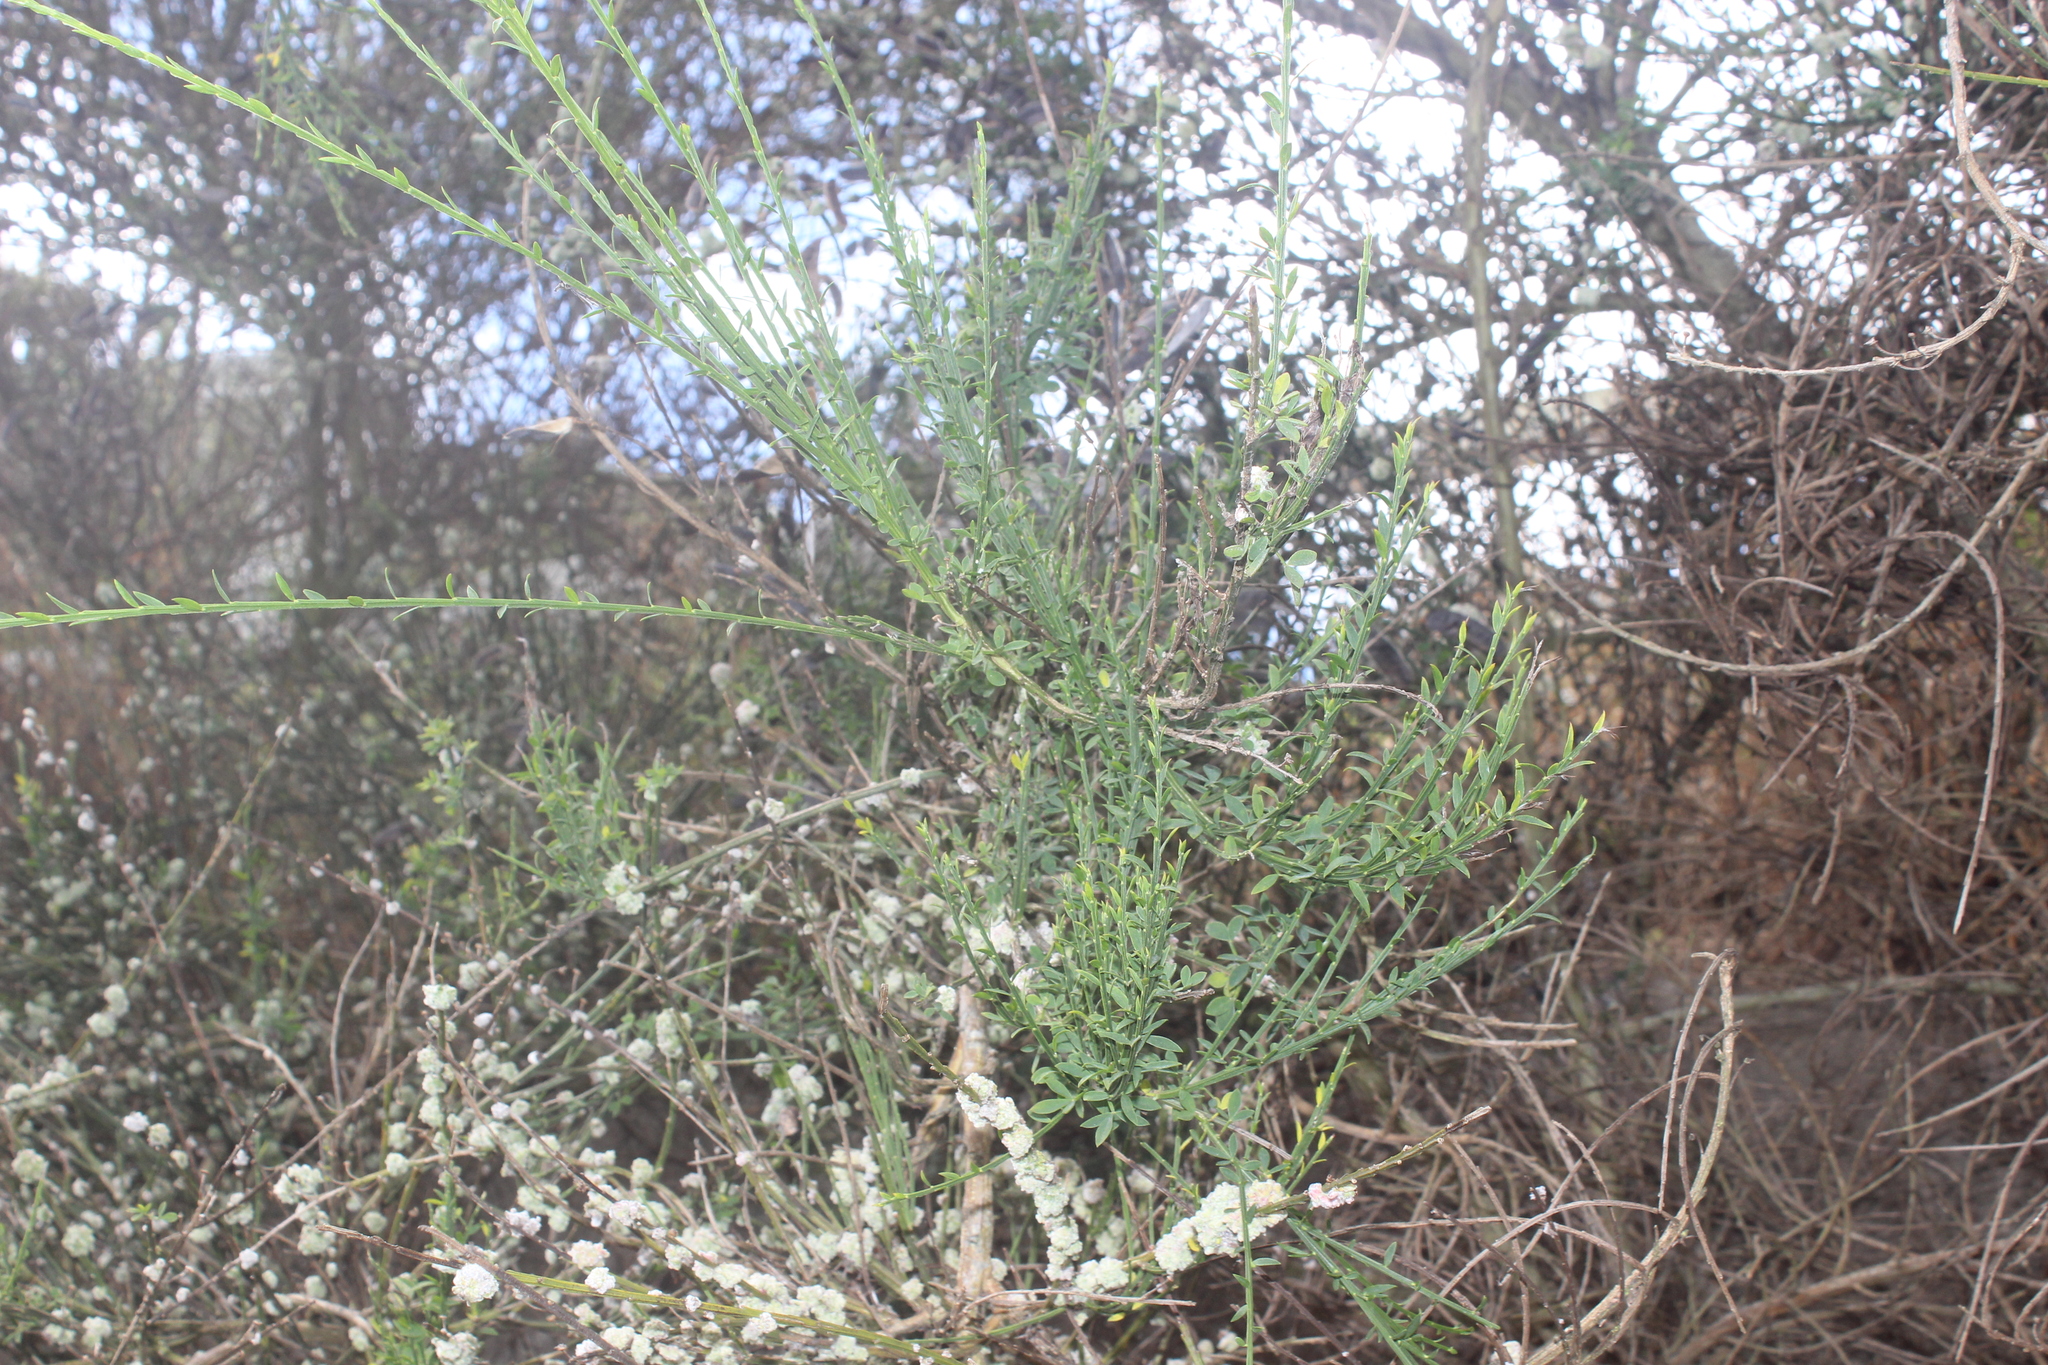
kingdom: Plantae
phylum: Tracheophyta
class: Magnoliopsida
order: Fabales
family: Fabaceae
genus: Cytisus
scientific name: Cytisus scoparius
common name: Scotch broom
